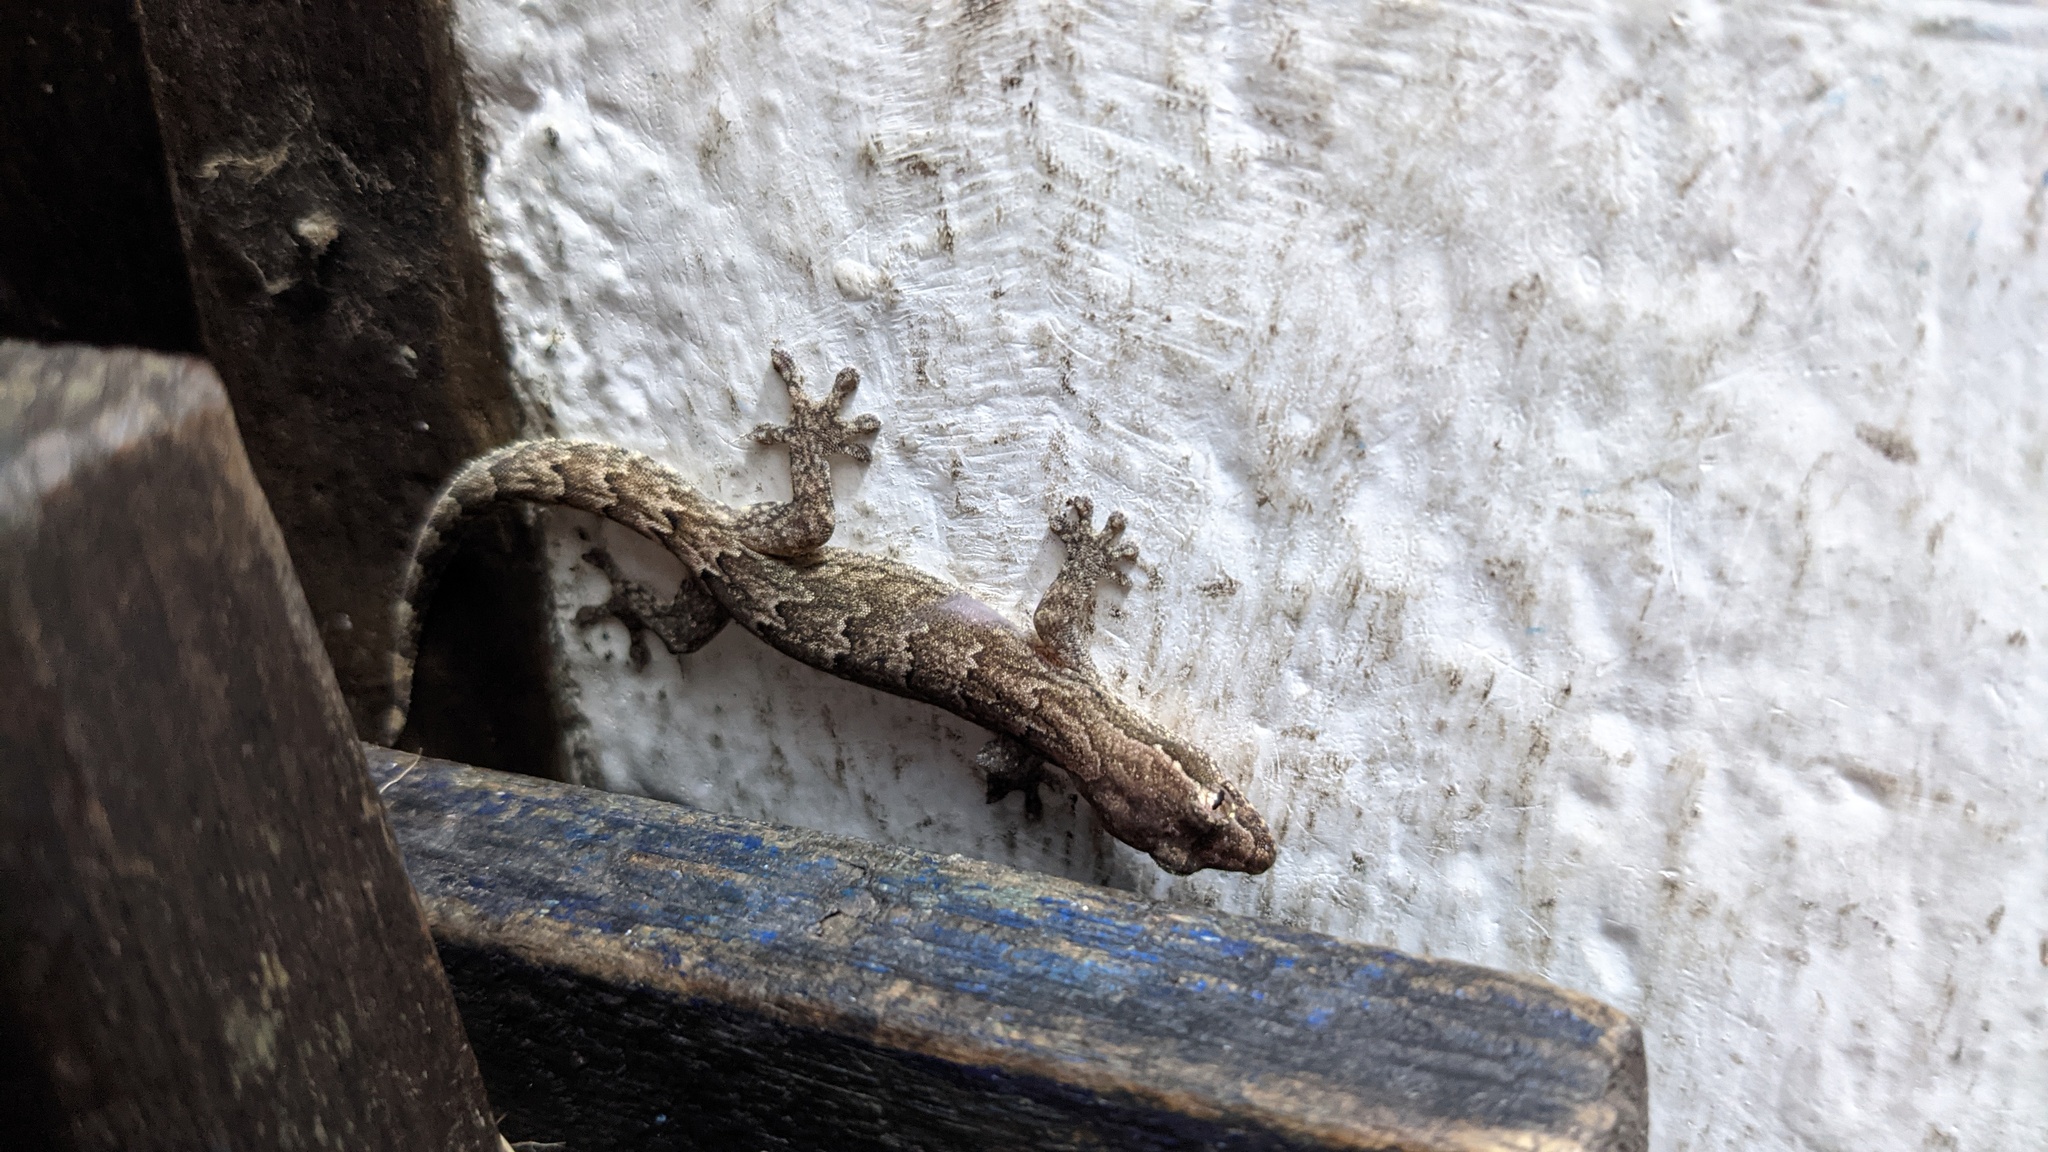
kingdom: Animalia
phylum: Chordata
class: Squamata
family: Gekkonidae
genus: Lepidodactylus
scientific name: Lepidodactylus lugubris
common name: Mourning gecko
